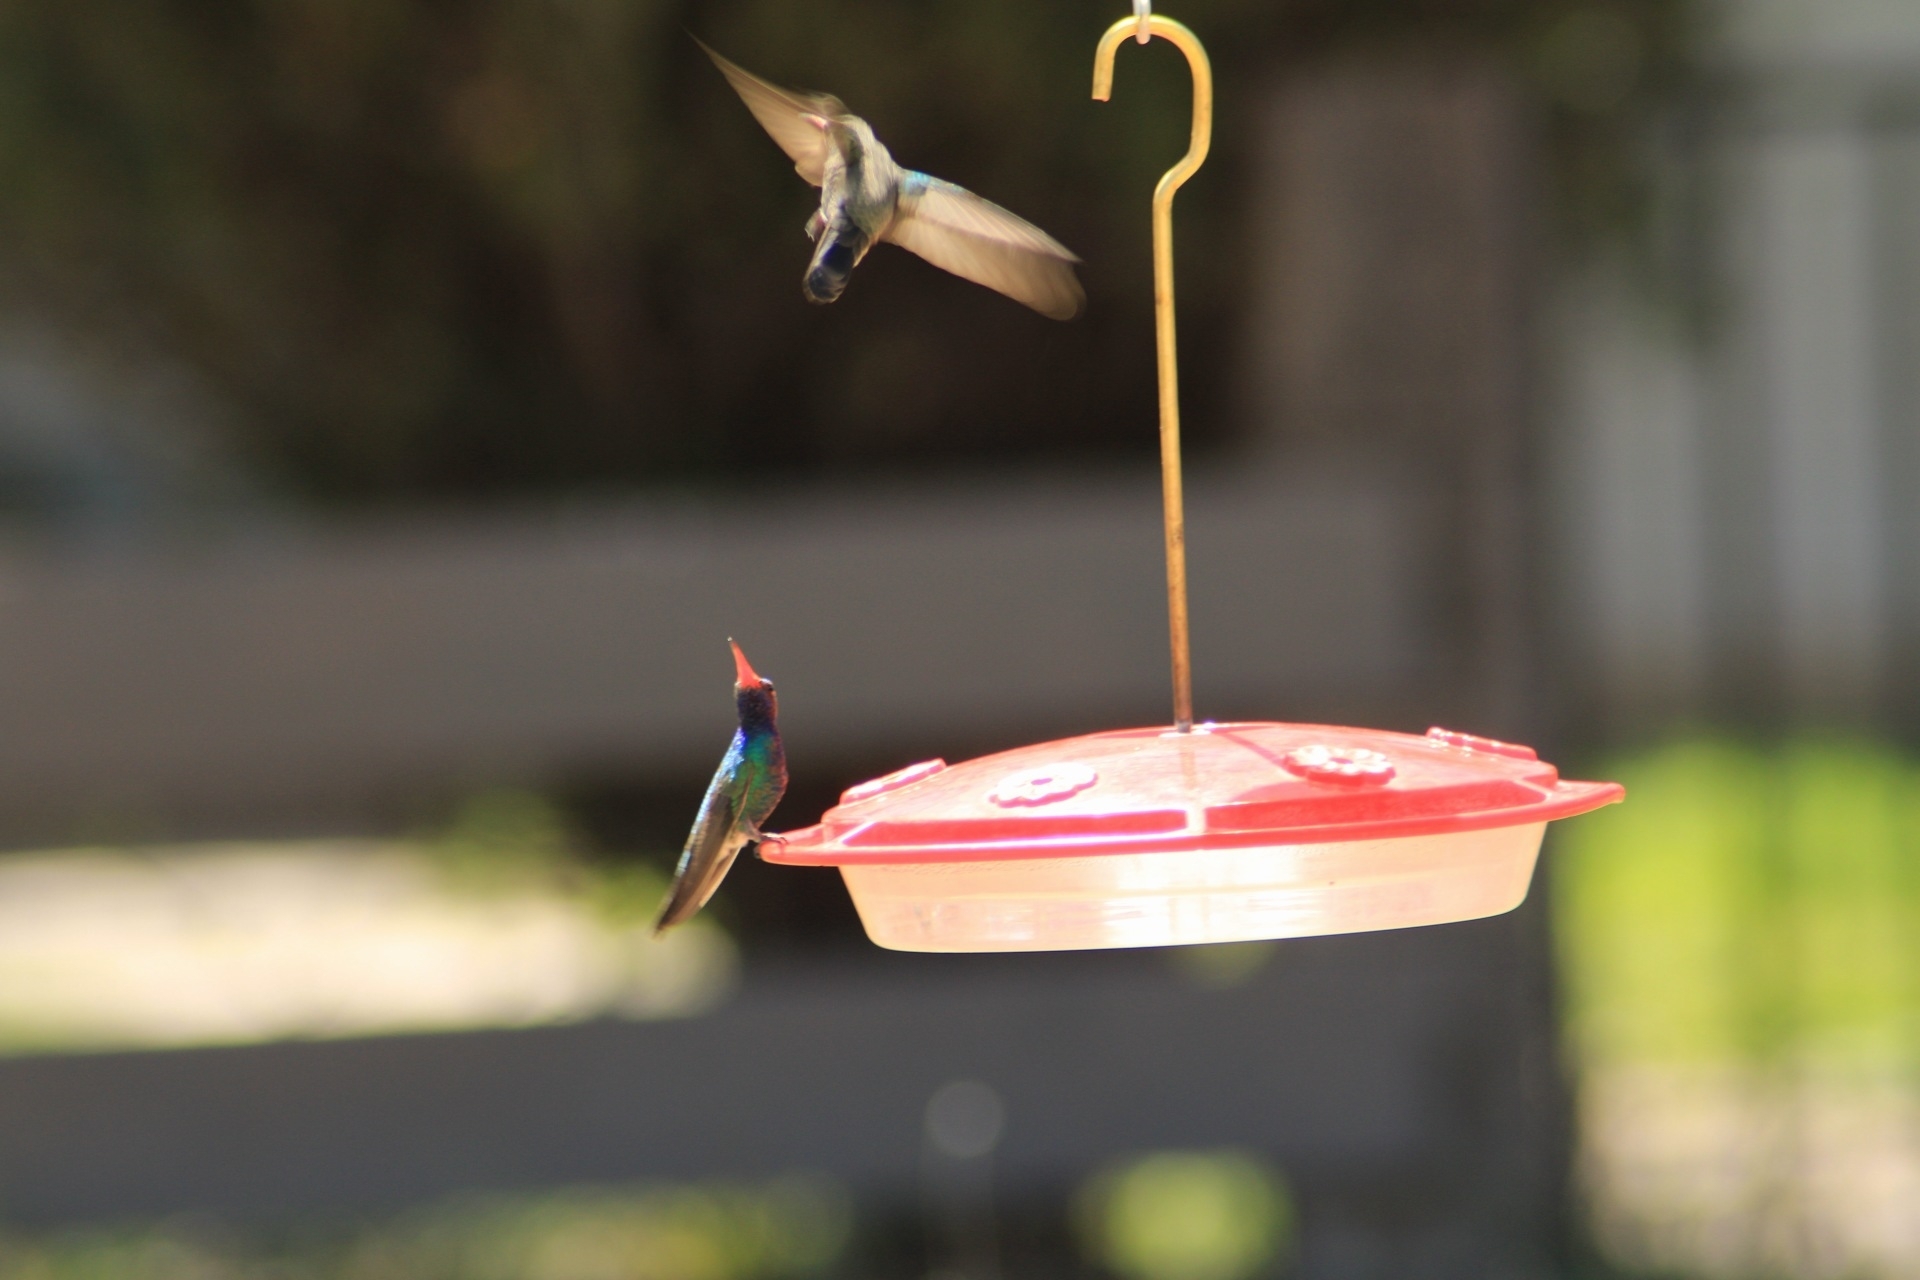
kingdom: Animalia
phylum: Chordata
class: Aves
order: Apodiformes
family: Trochilidae
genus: Cynanthus
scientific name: Cynanthus latirostris
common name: Broad-billed hummingbird
